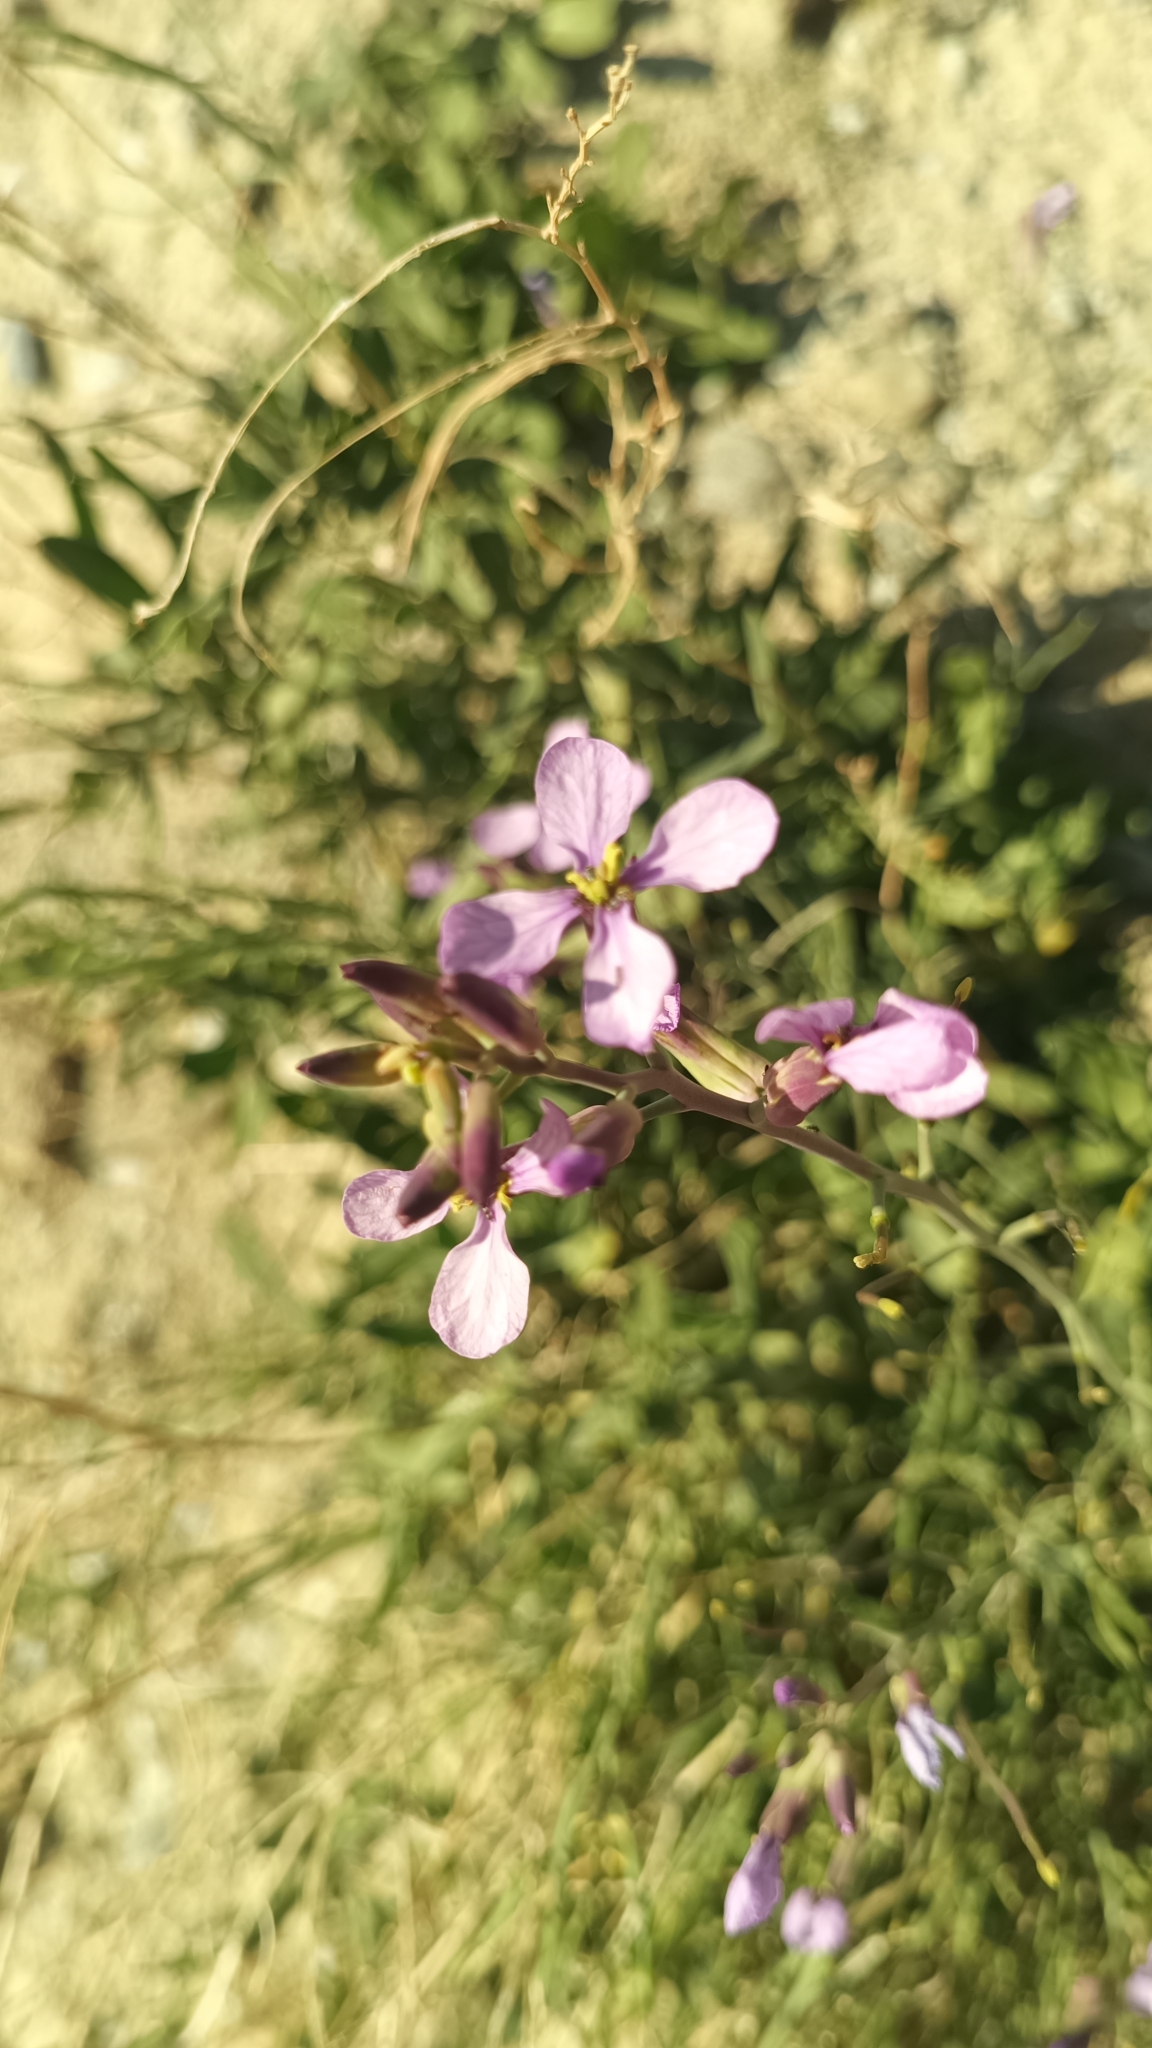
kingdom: Plantae
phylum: Tracheophyta
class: Magnoliopsida
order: Brassicales
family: Brassicaceae
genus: Moricandia
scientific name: Moricandia arvensis
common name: Purple mistress
